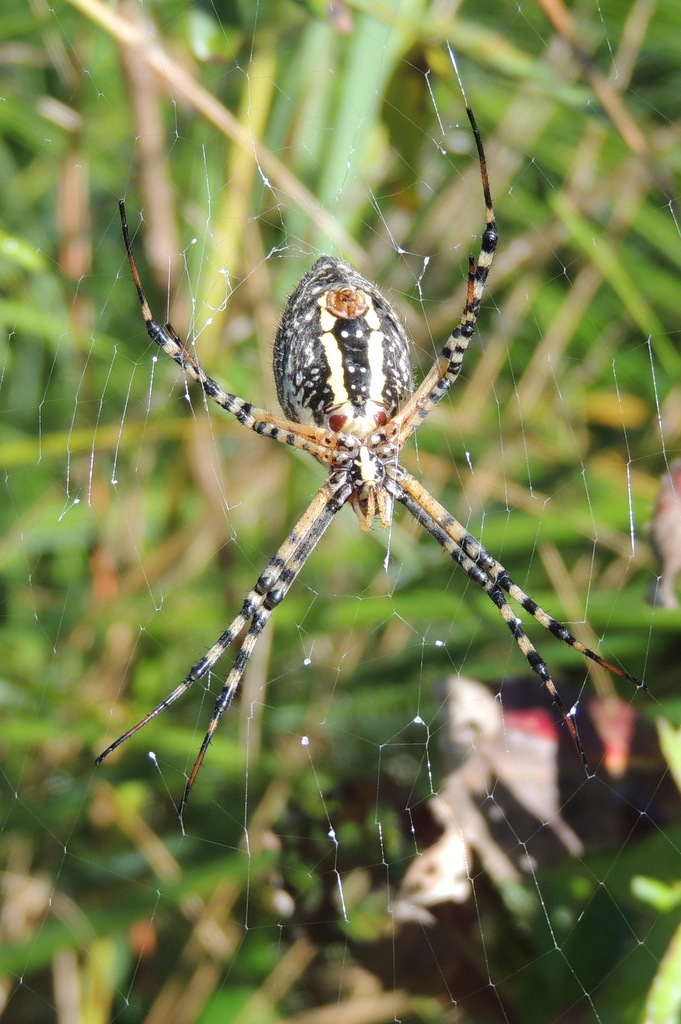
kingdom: Animalia
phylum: Arthropoda
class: Arachnida
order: Araneae
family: Araneidae
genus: Argiope
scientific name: Argiope trifasciata
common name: Banded garden spider
